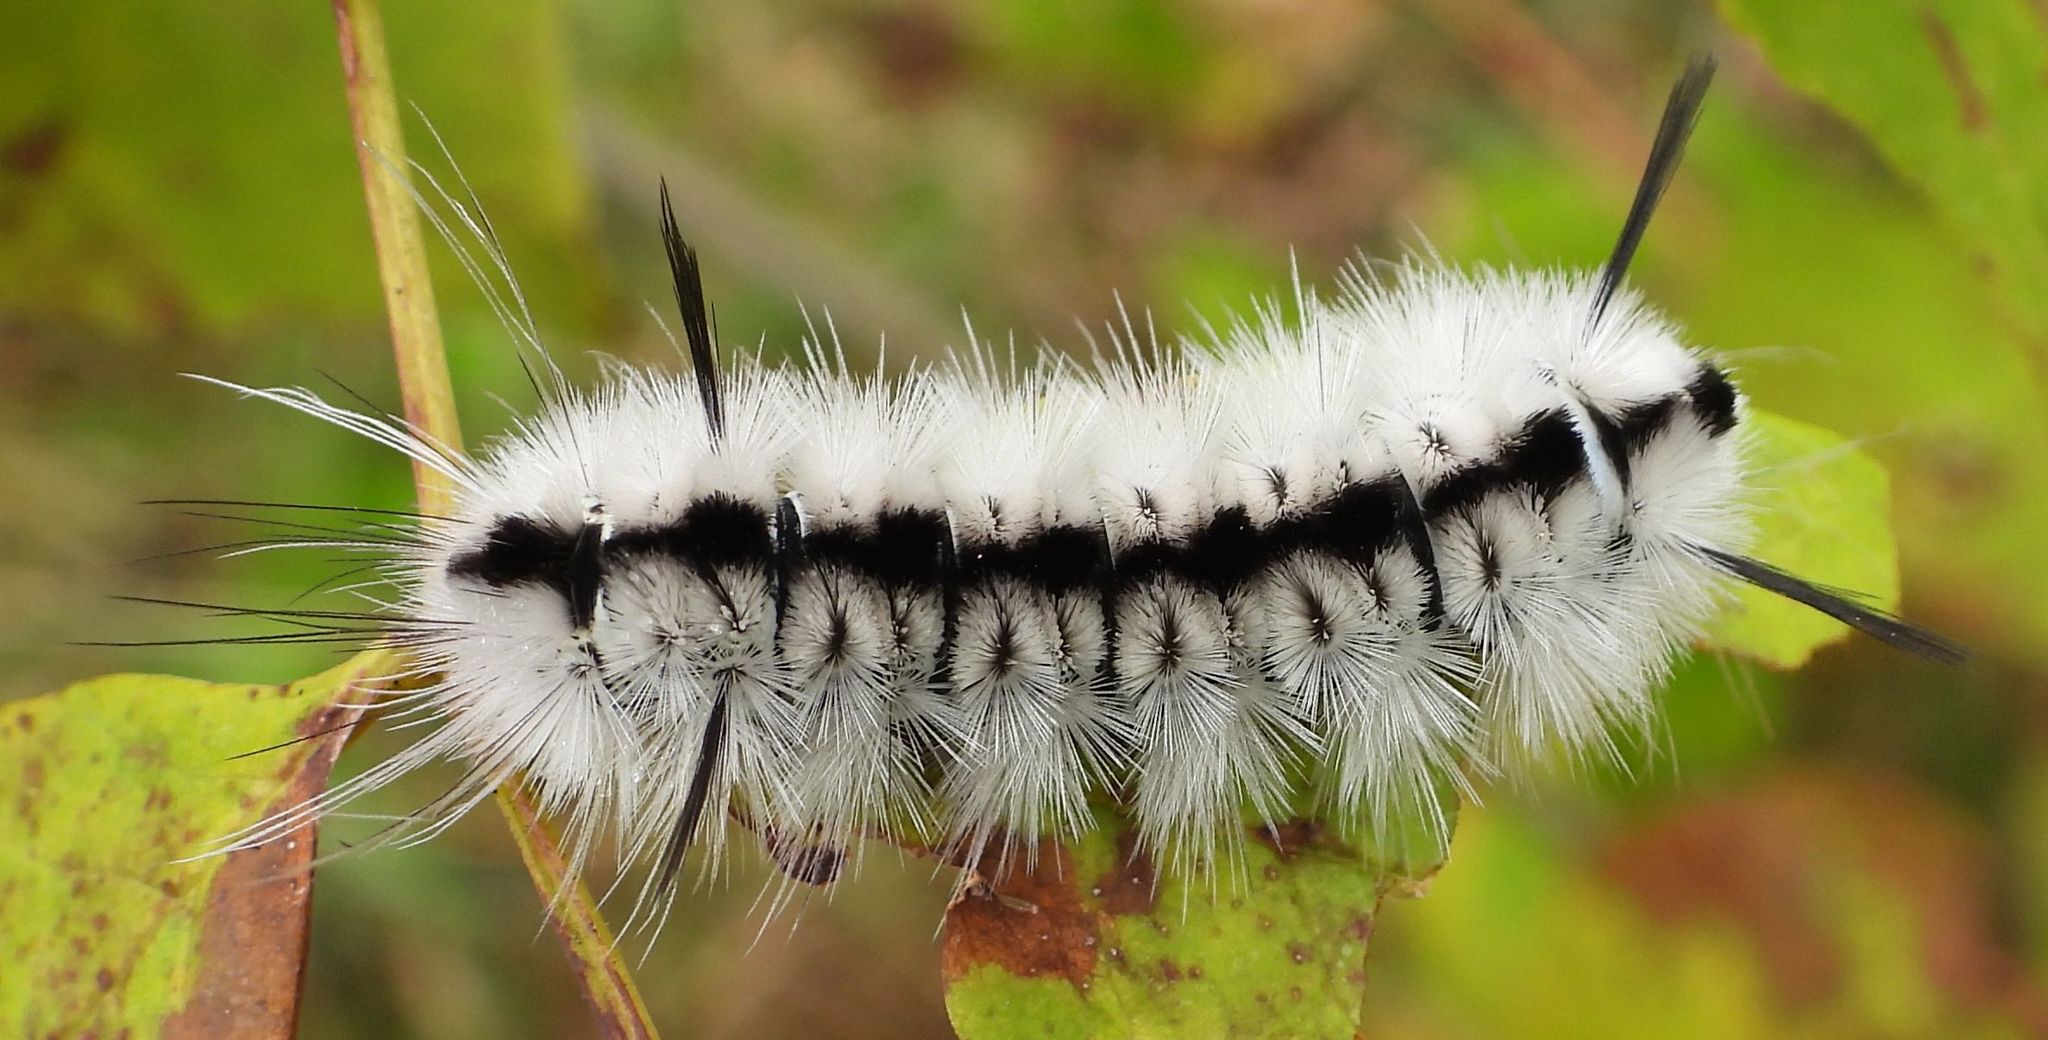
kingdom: Animalia
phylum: Arthropoda
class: Insecta
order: Lepidoptera
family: Erebidae
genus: Lophocampa
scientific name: Lophocampa caryae
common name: Hickory tussock moth
